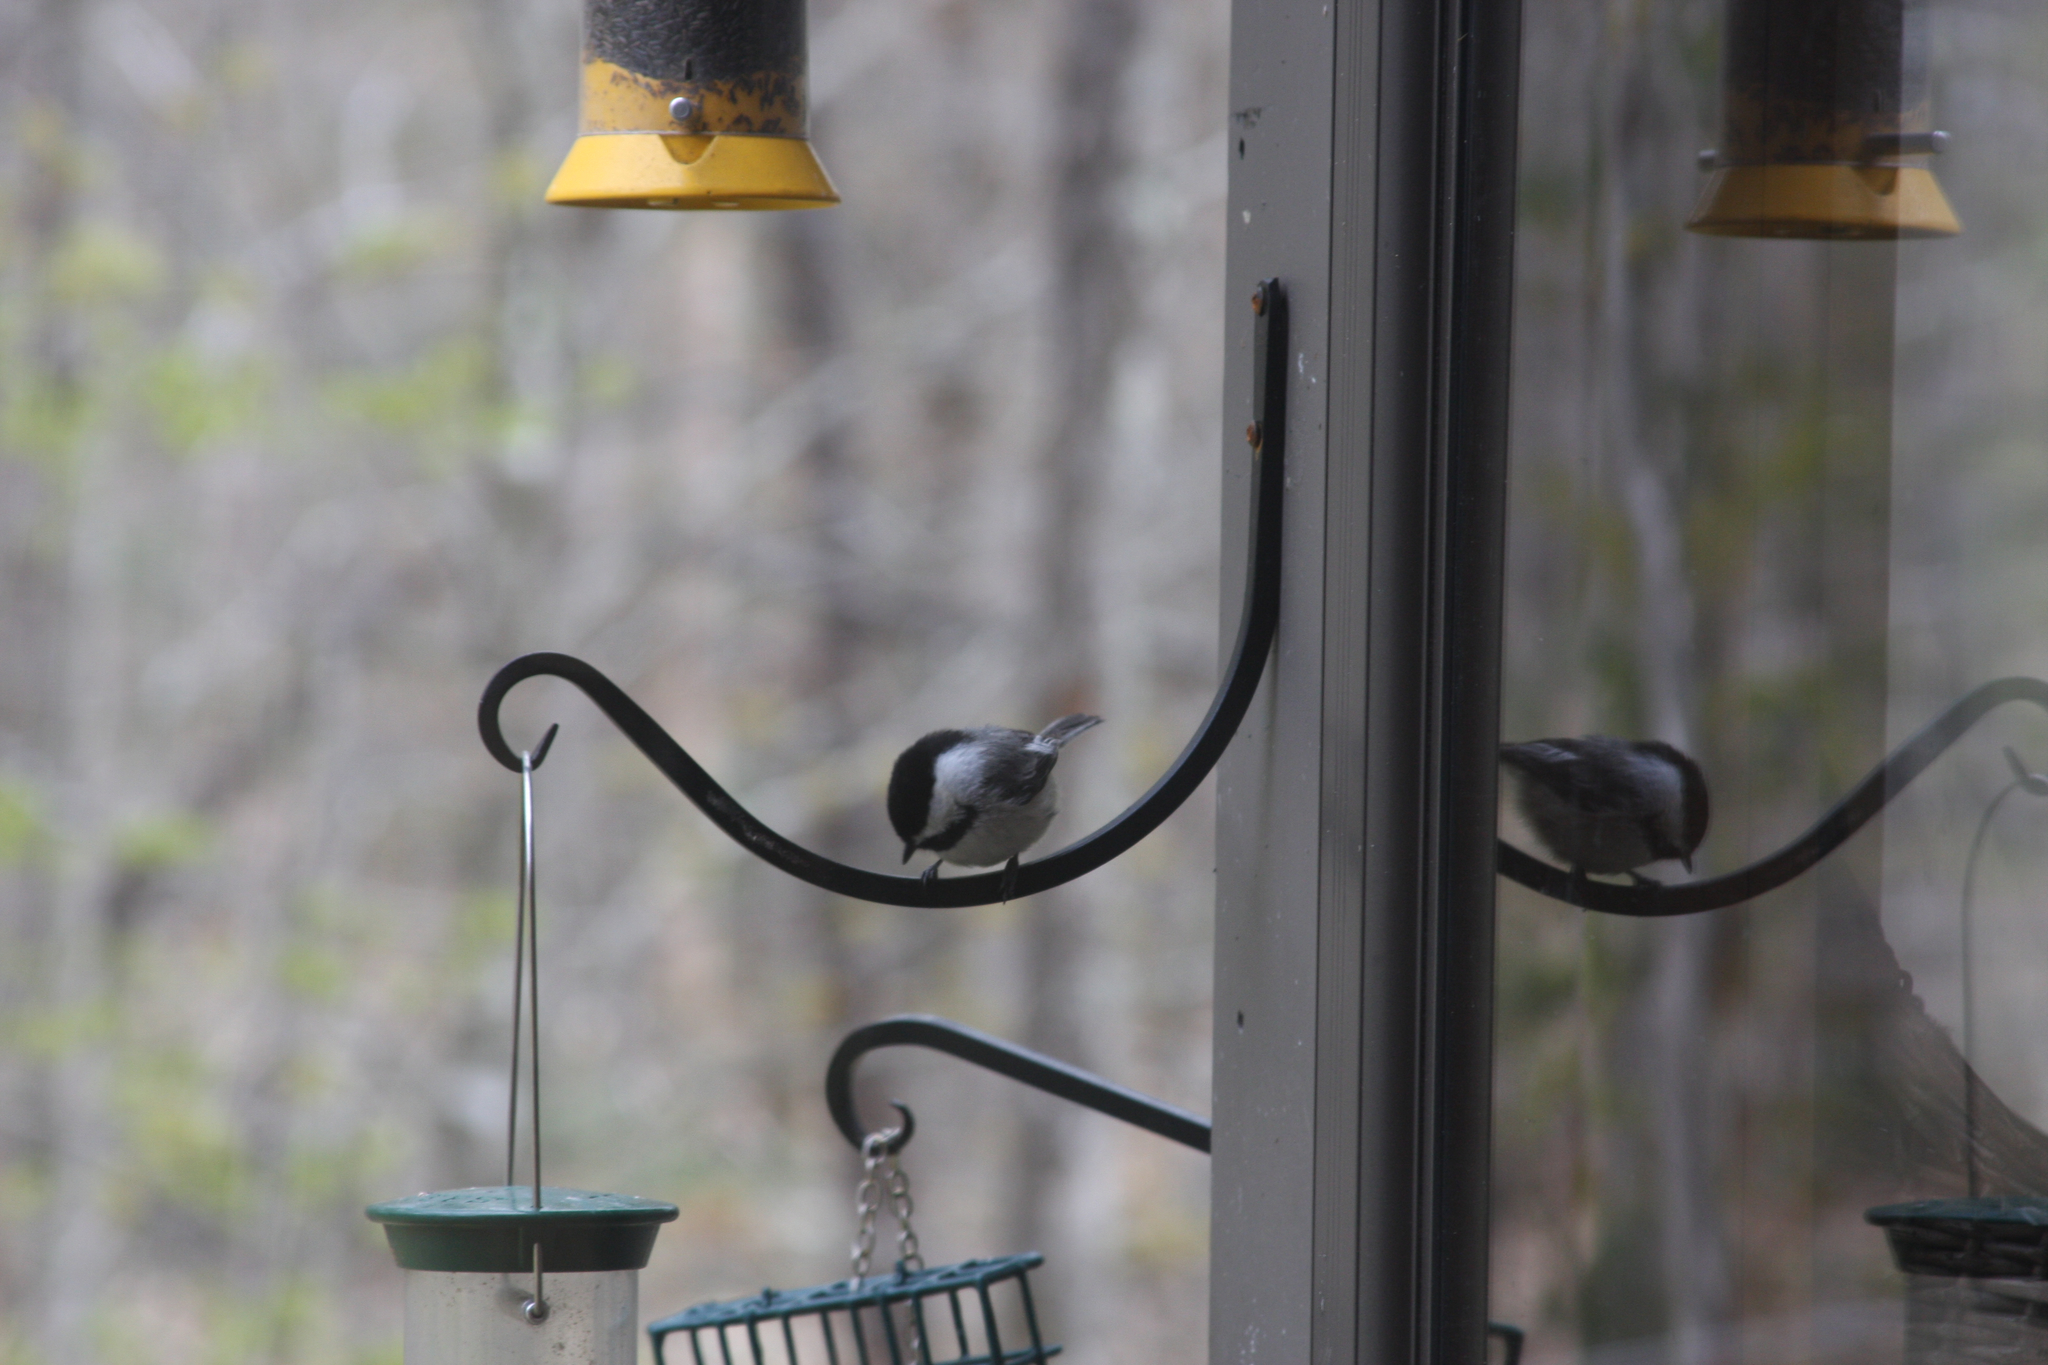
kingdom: Animalia
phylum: Chordata
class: Aves
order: Passeriformes
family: Paridae
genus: Poecile
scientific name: Poecile atricapillus
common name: Black-capped chickadee
